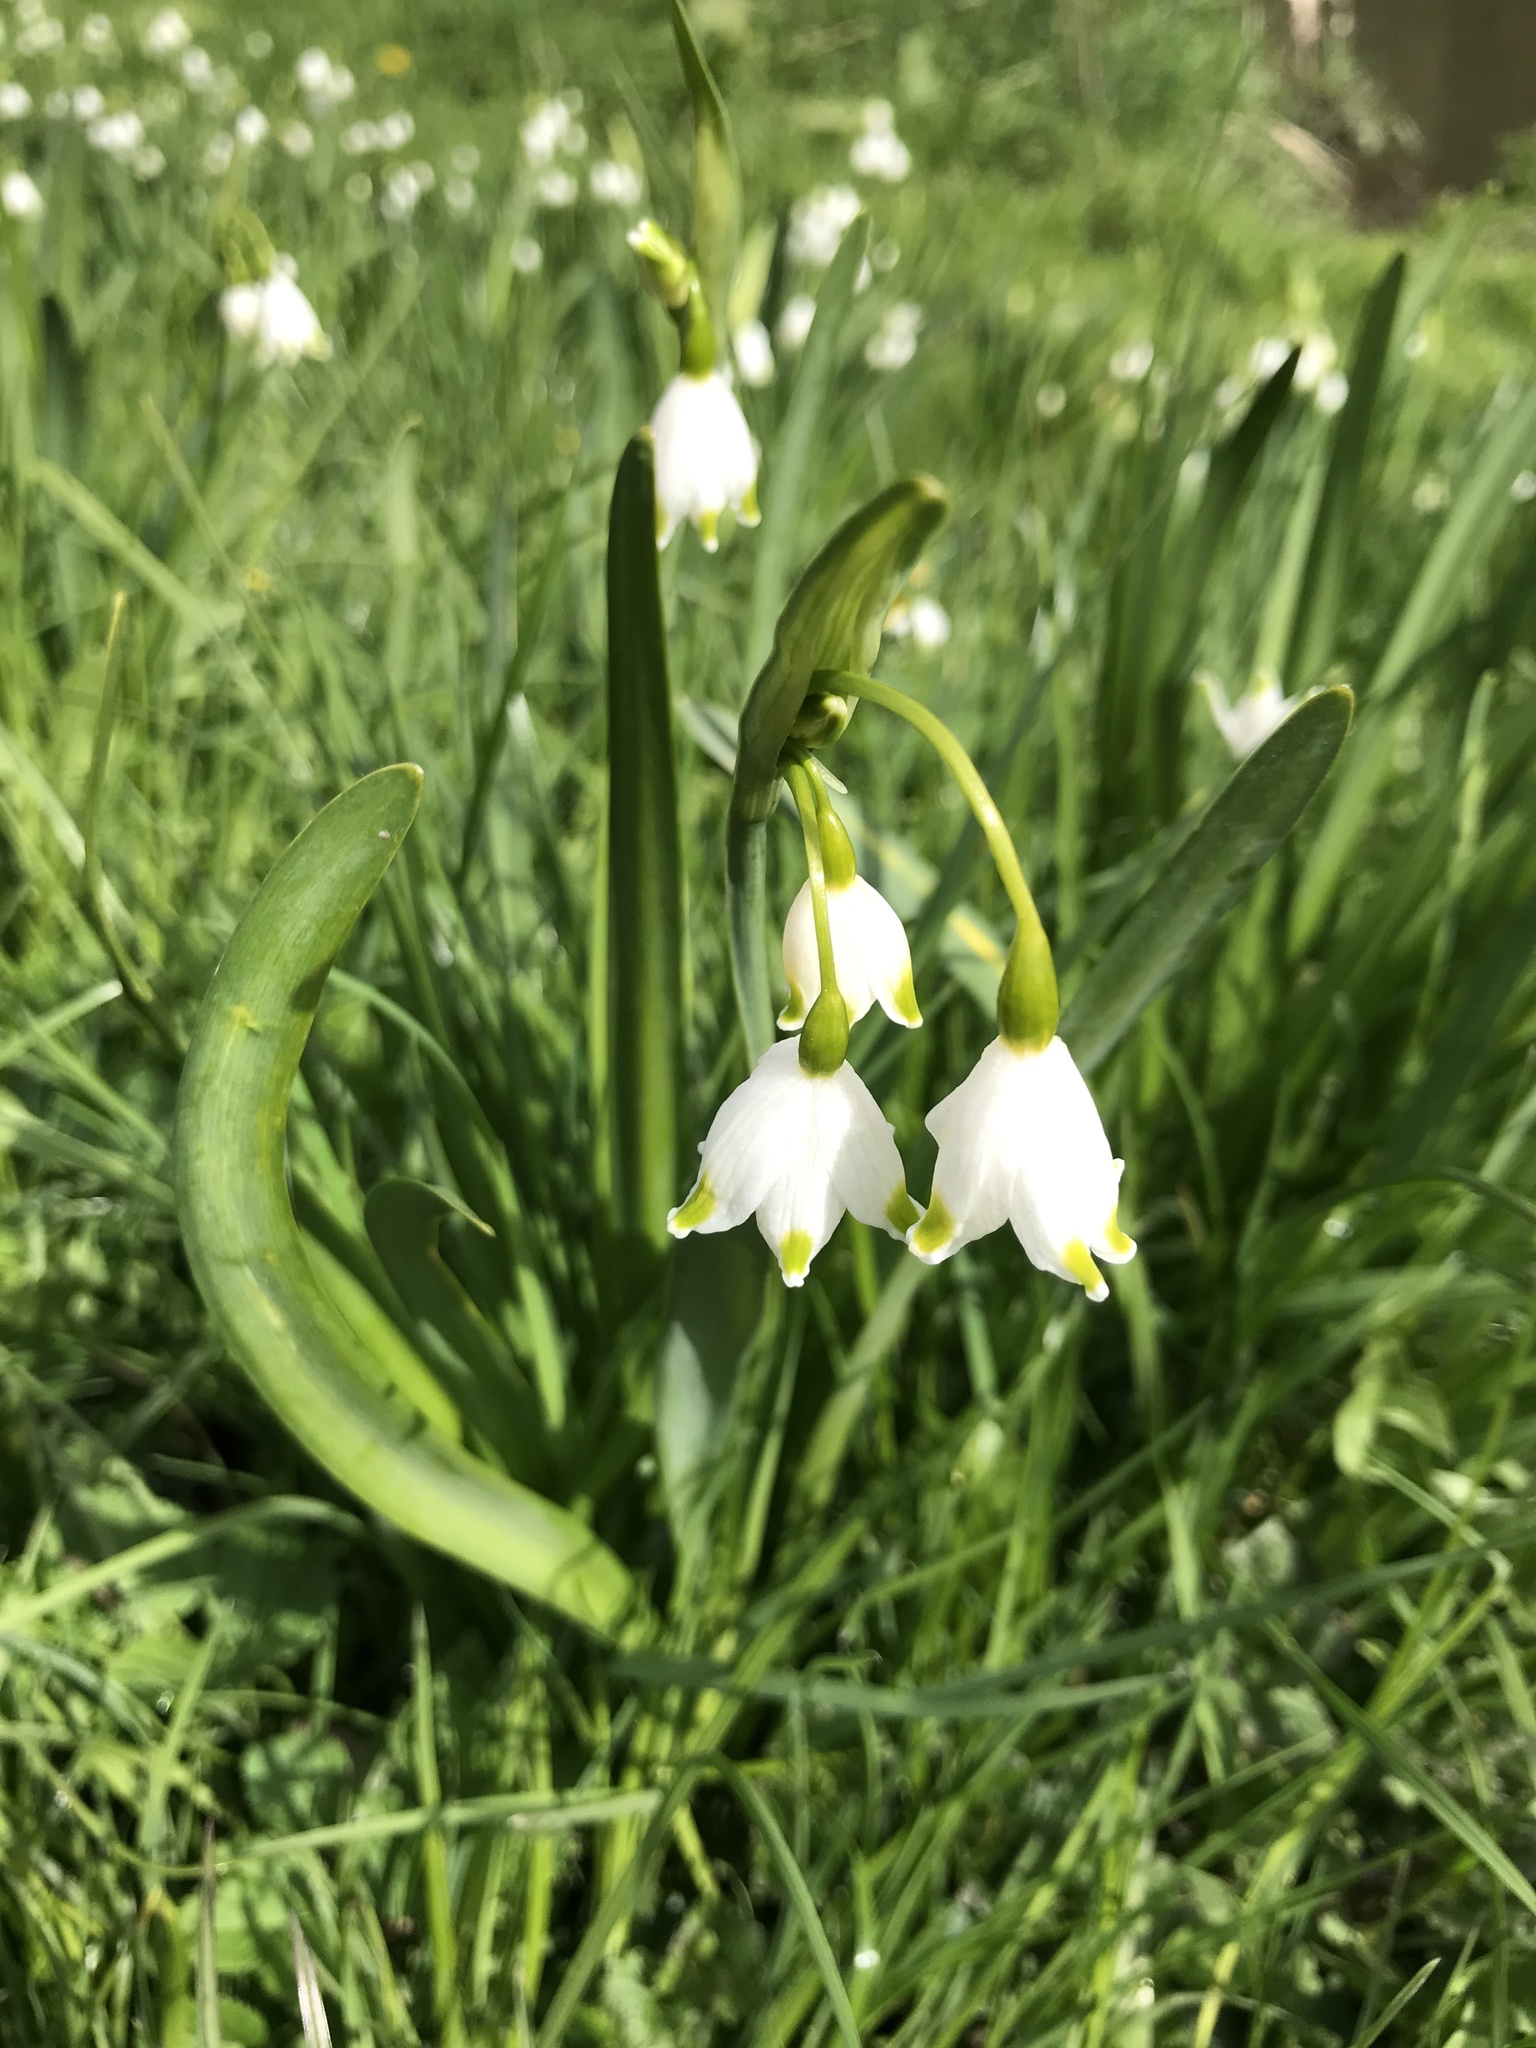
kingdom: Plantae
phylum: Tracheophyta
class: Liliopsida
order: Asparagales
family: Amaryllidaceae
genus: Leucojum
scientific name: Leucojum aestivum
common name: Summer snowflake
